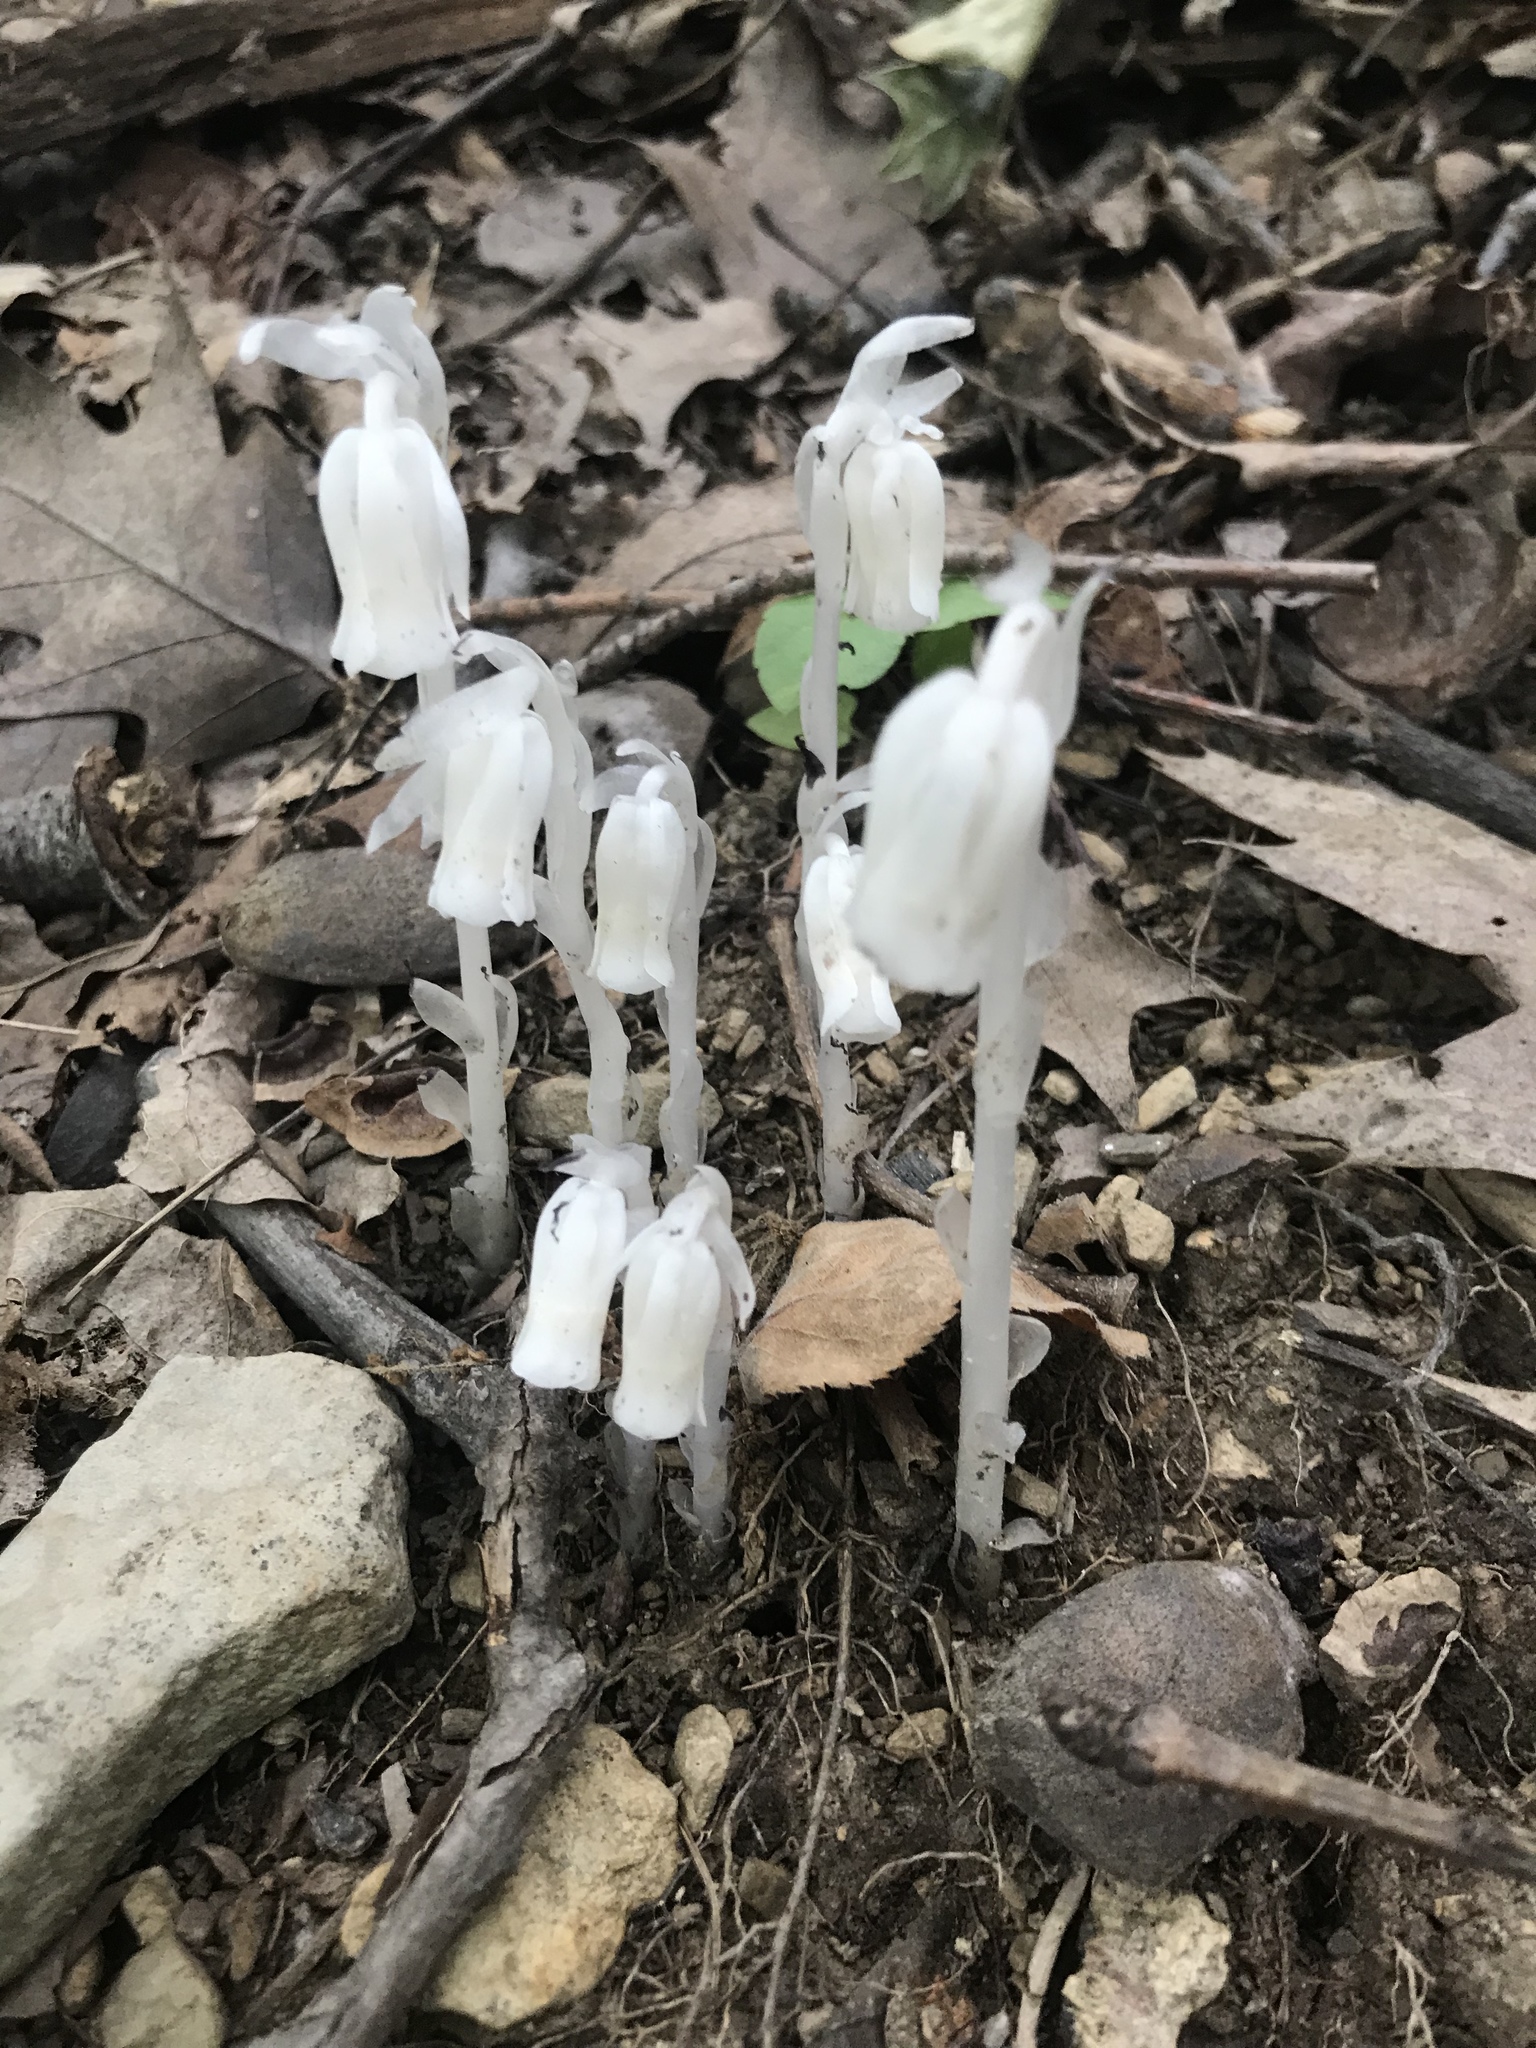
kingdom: Plantae
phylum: Tracheophyta
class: Magnoliopsida
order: Ericales
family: Ericaceae
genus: Monotropa
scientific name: Monotropa uniflora
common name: Convulsion root
